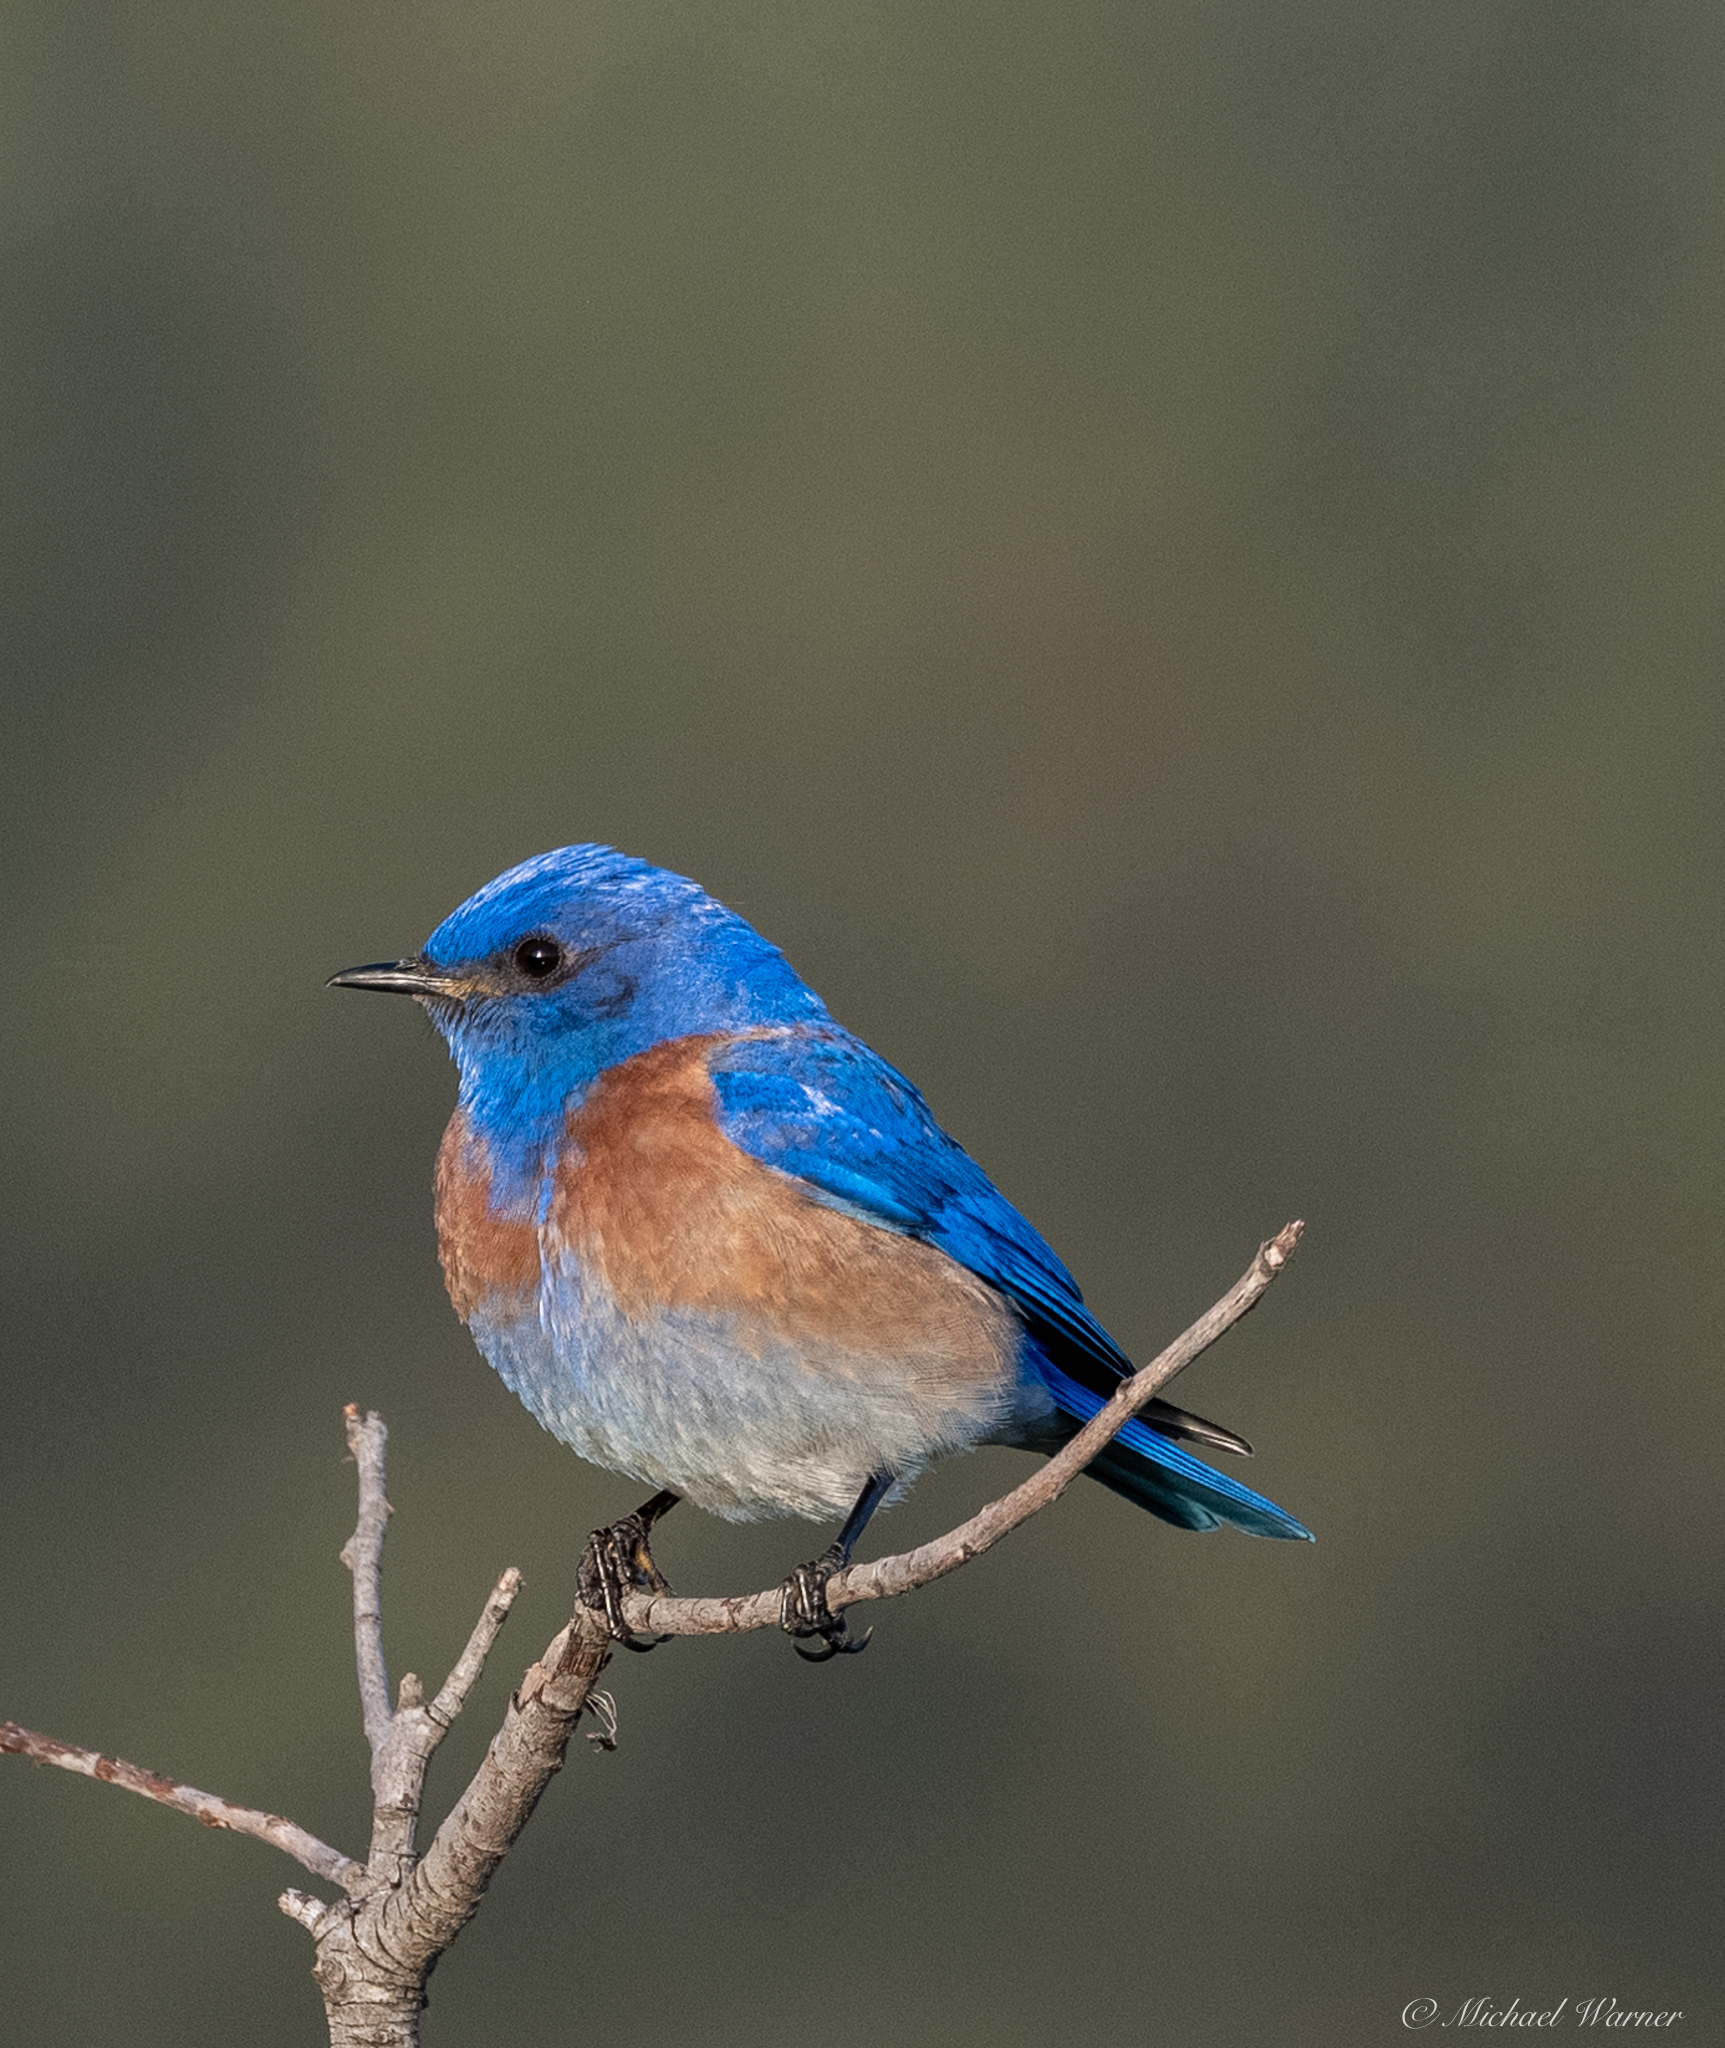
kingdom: Animalia
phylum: Chordata
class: Aves
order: Passeriformes
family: Turdidae
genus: Sialia
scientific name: Sialia mexicana
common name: Western bluebird
